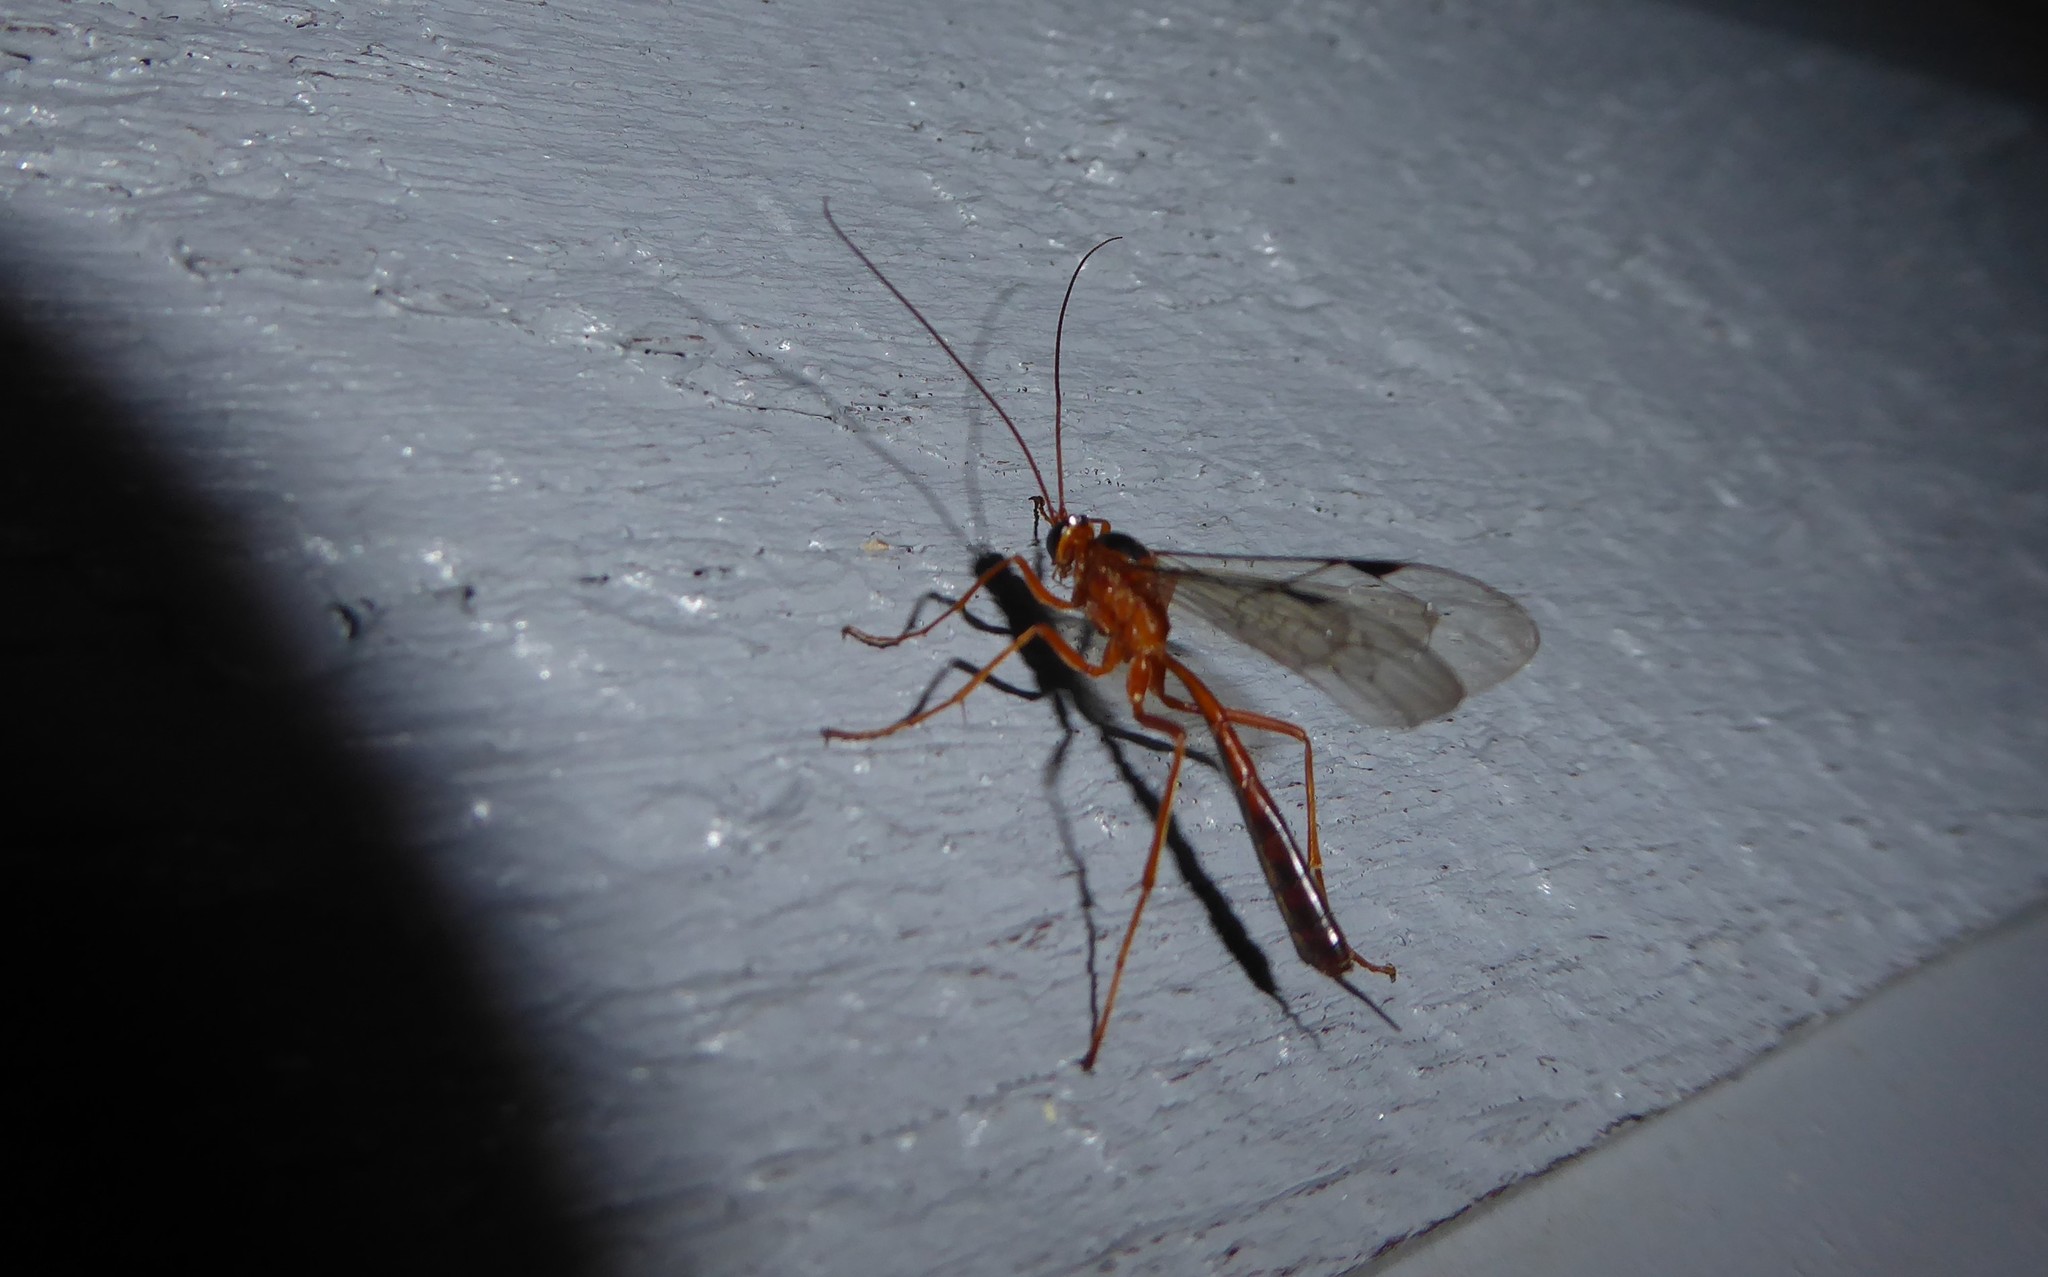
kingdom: Animalia
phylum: Arthropoda
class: Insecta
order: Hymenoptera
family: Ichneumonidae
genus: Netelia
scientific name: Netelia ephippiata
